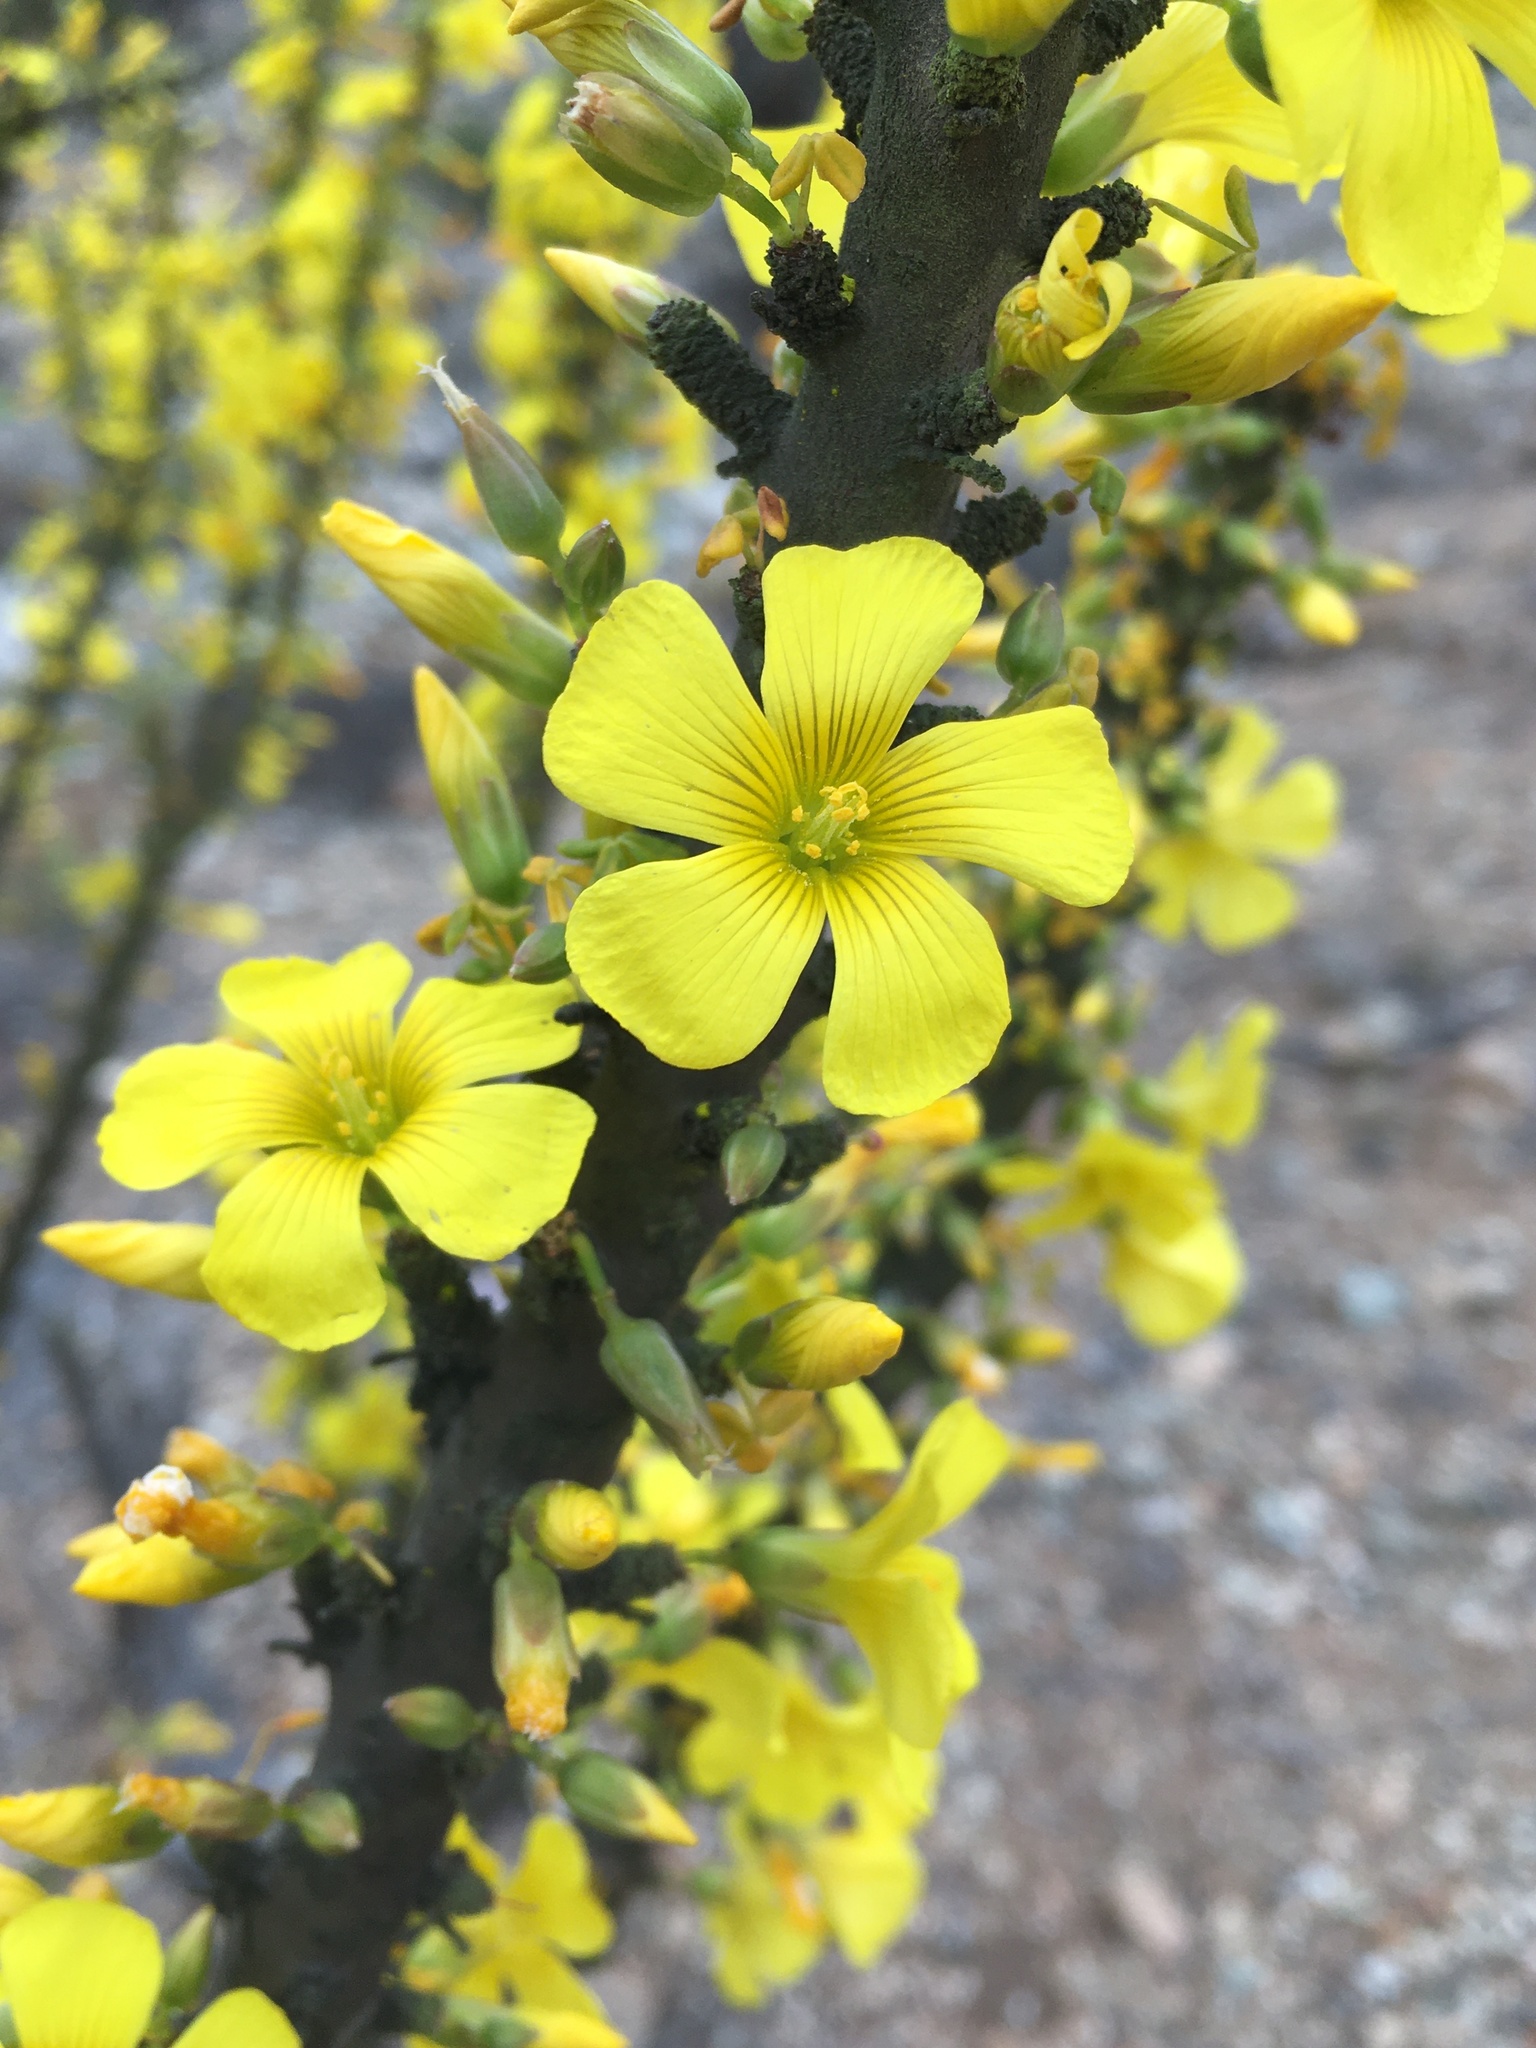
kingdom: Plantae
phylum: Tracheophyta
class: Magnoliopsida
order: Oxalidales
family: Oxalidaceae
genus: Oxalis
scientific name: Oxalis gigantea
